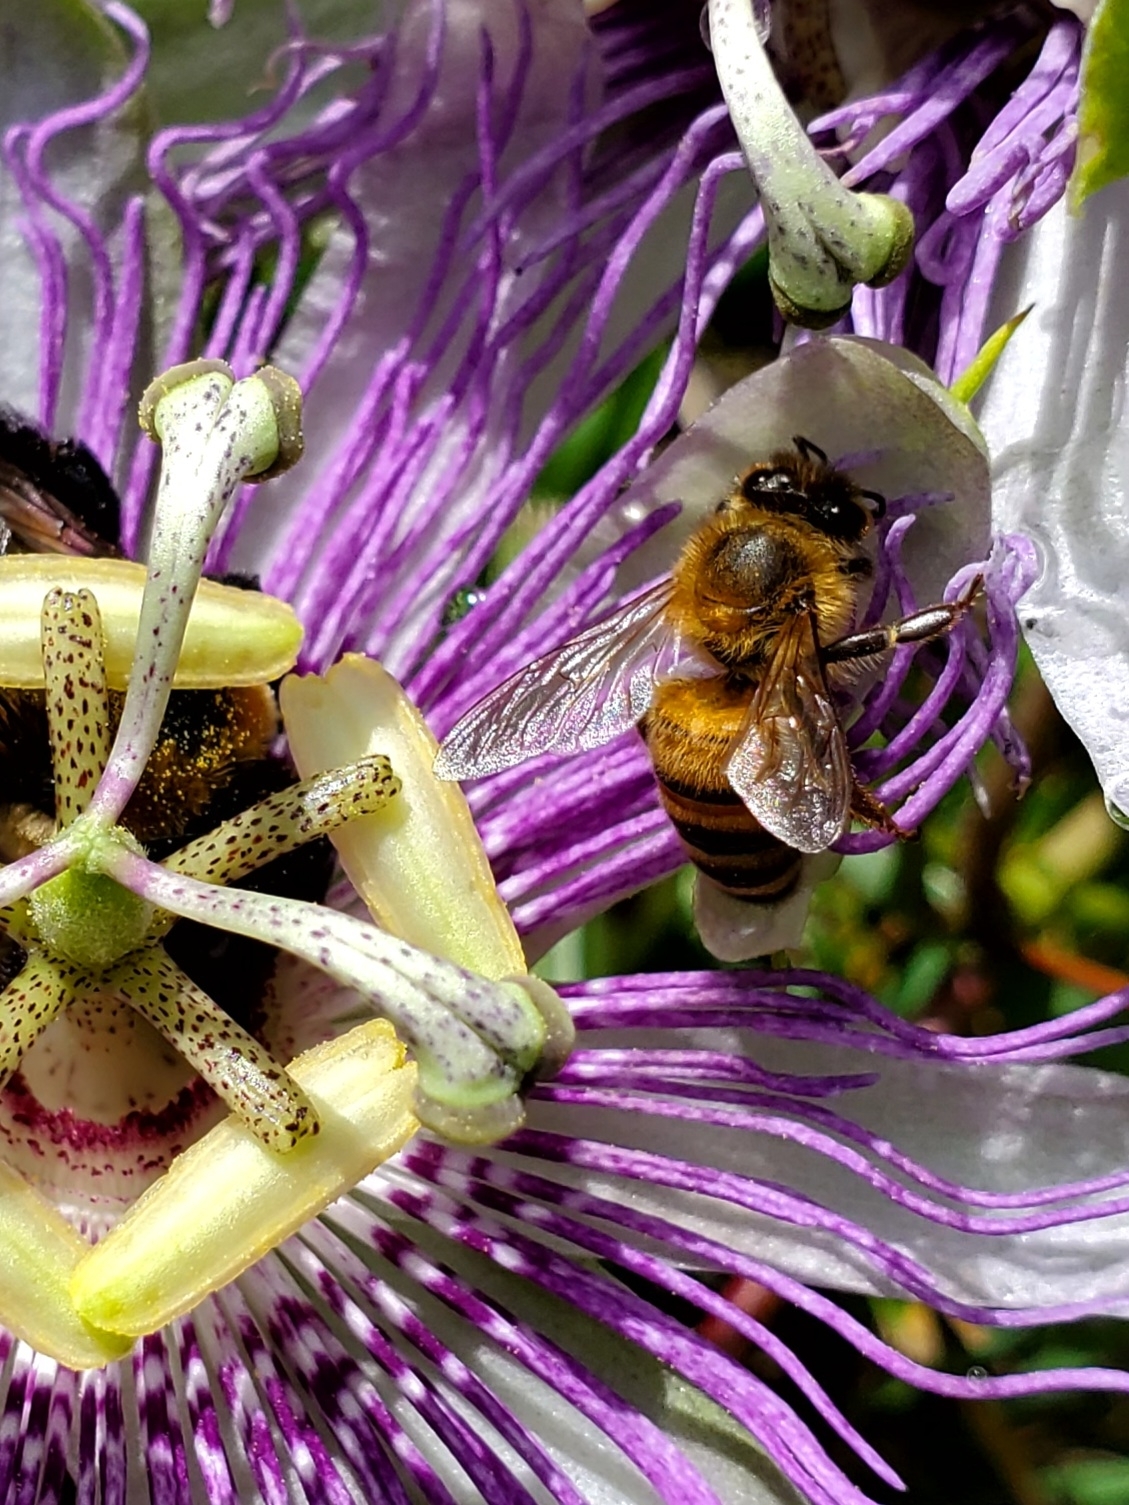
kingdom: Animalia
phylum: Arthropoda
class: Insecta
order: Hymenoptera
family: Apidae
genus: Apis
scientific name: Apis mellifera
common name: Honey bee
